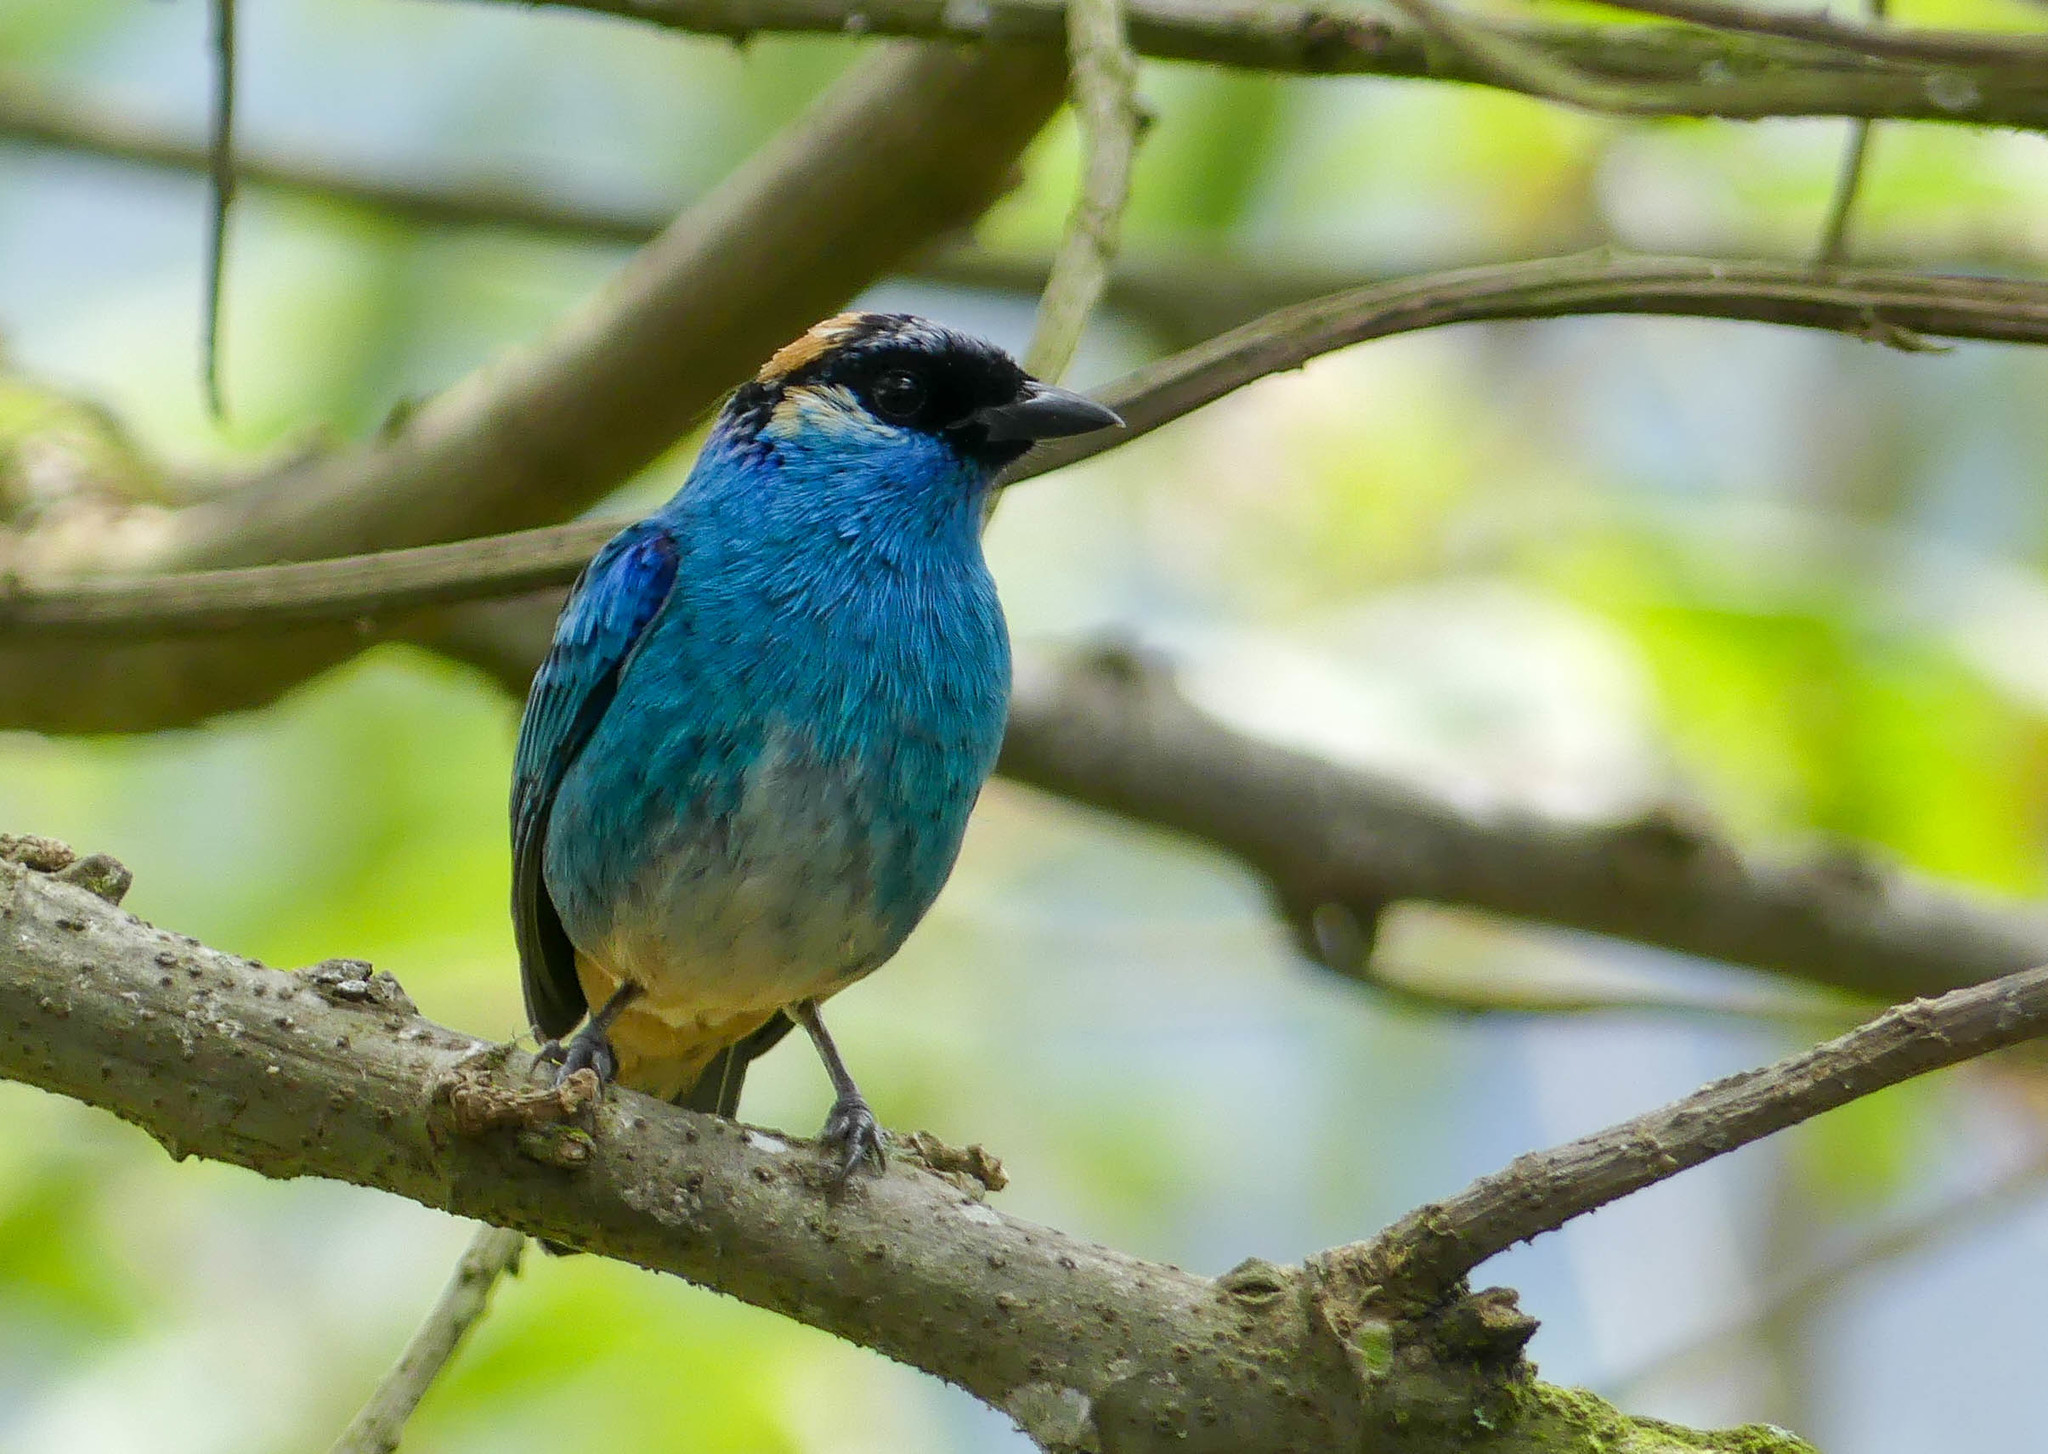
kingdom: Animalia
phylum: Chordata
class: Aves
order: Passeriformes
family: Thraupidae
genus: Chalcothraupis
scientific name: Chalcothraupis ruficervix
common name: Golden-naped tanager
